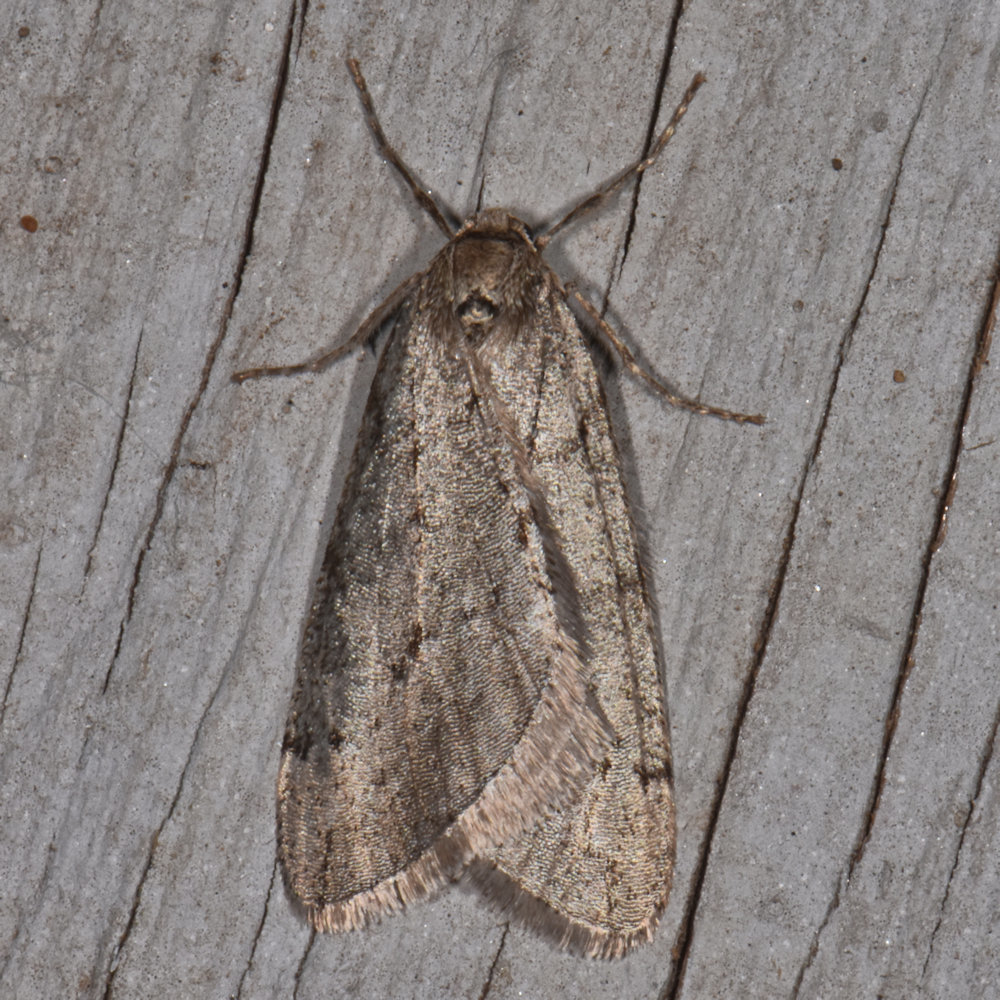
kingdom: Animalia
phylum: Arthropoda
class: Insecta
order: Lepidoptera
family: Geometridae
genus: Paleacrita
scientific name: Paleacrita vernata
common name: Spring cankerworm
